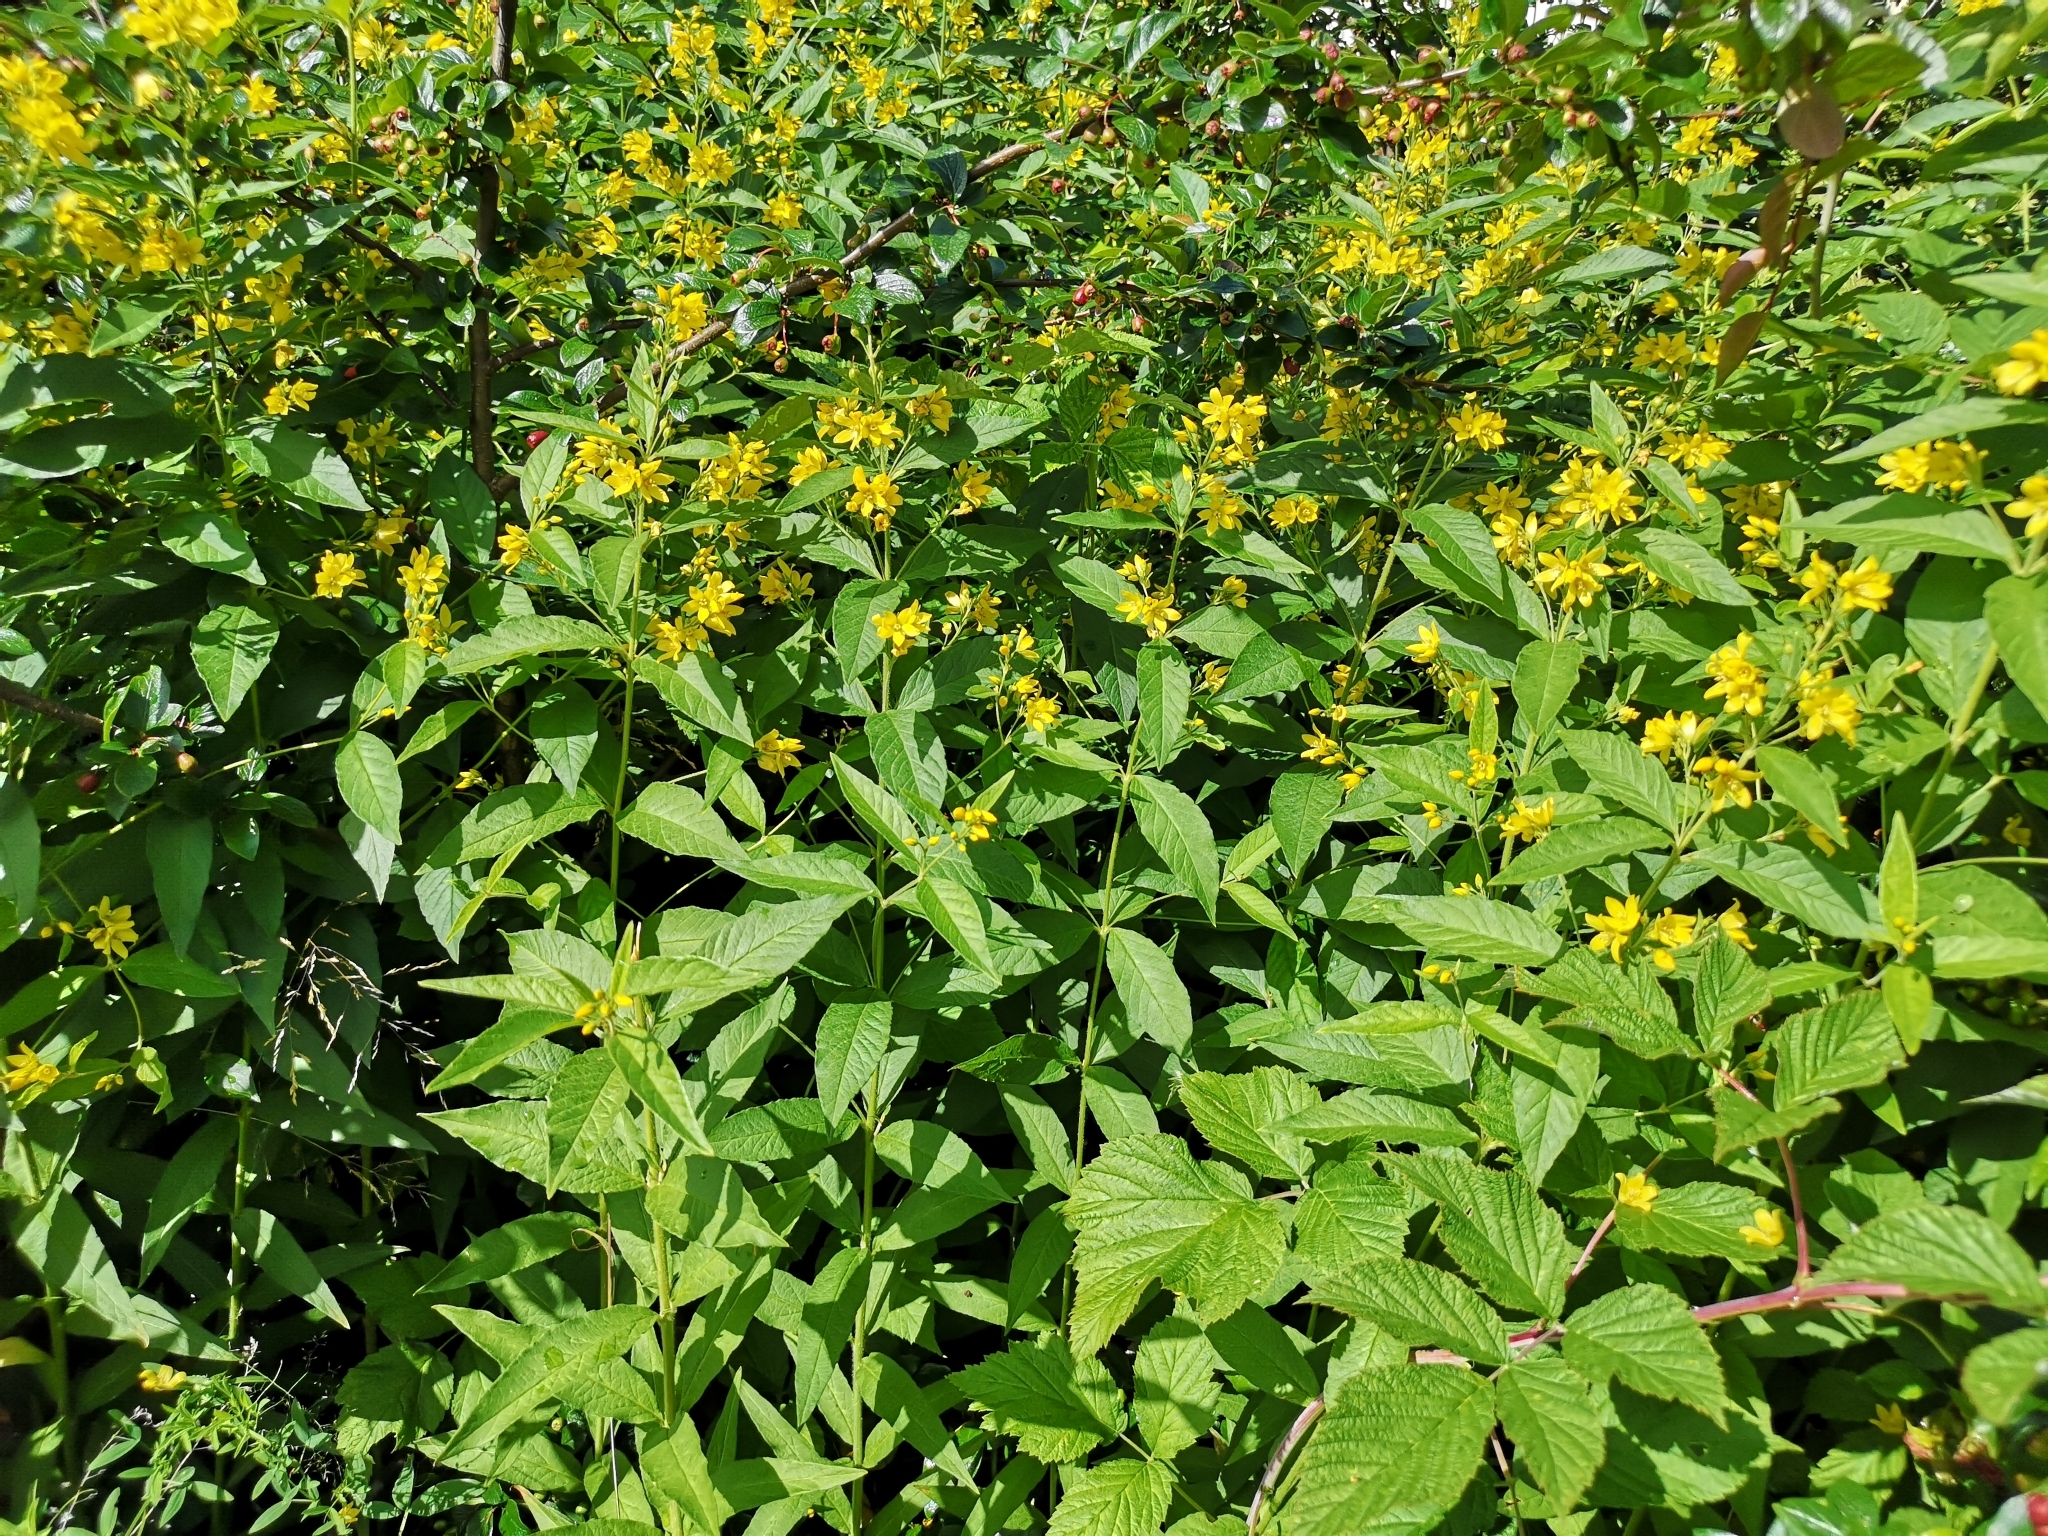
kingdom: Plantae
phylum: Tracheophyta
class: Magnoliopsida
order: Ericales
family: Primulaceae
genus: Lysimachia
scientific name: Lysimachia vulgaris
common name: Yellow loosestrife
